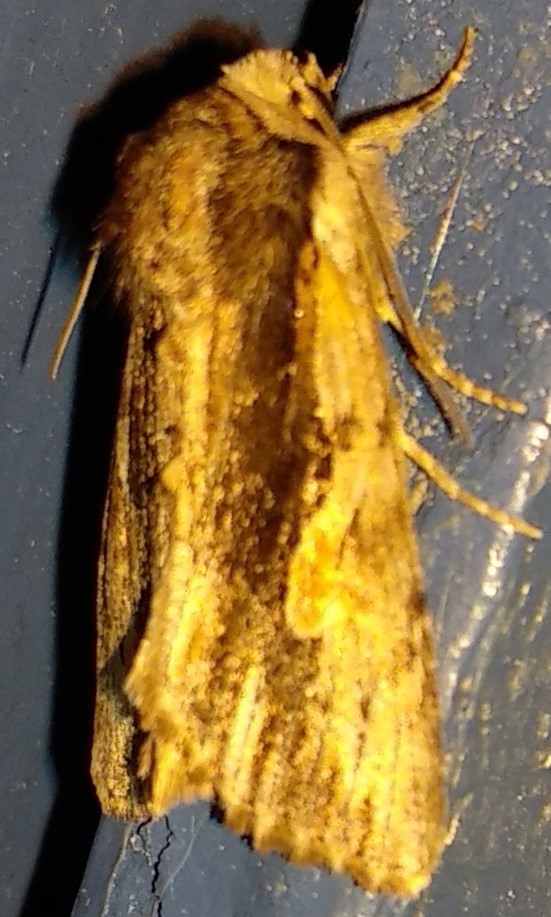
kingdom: Animalia
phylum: Arthropoda
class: Insecta
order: Lepidoptera
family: Noctuidae
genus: Achatia
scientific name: Achatia evicta
